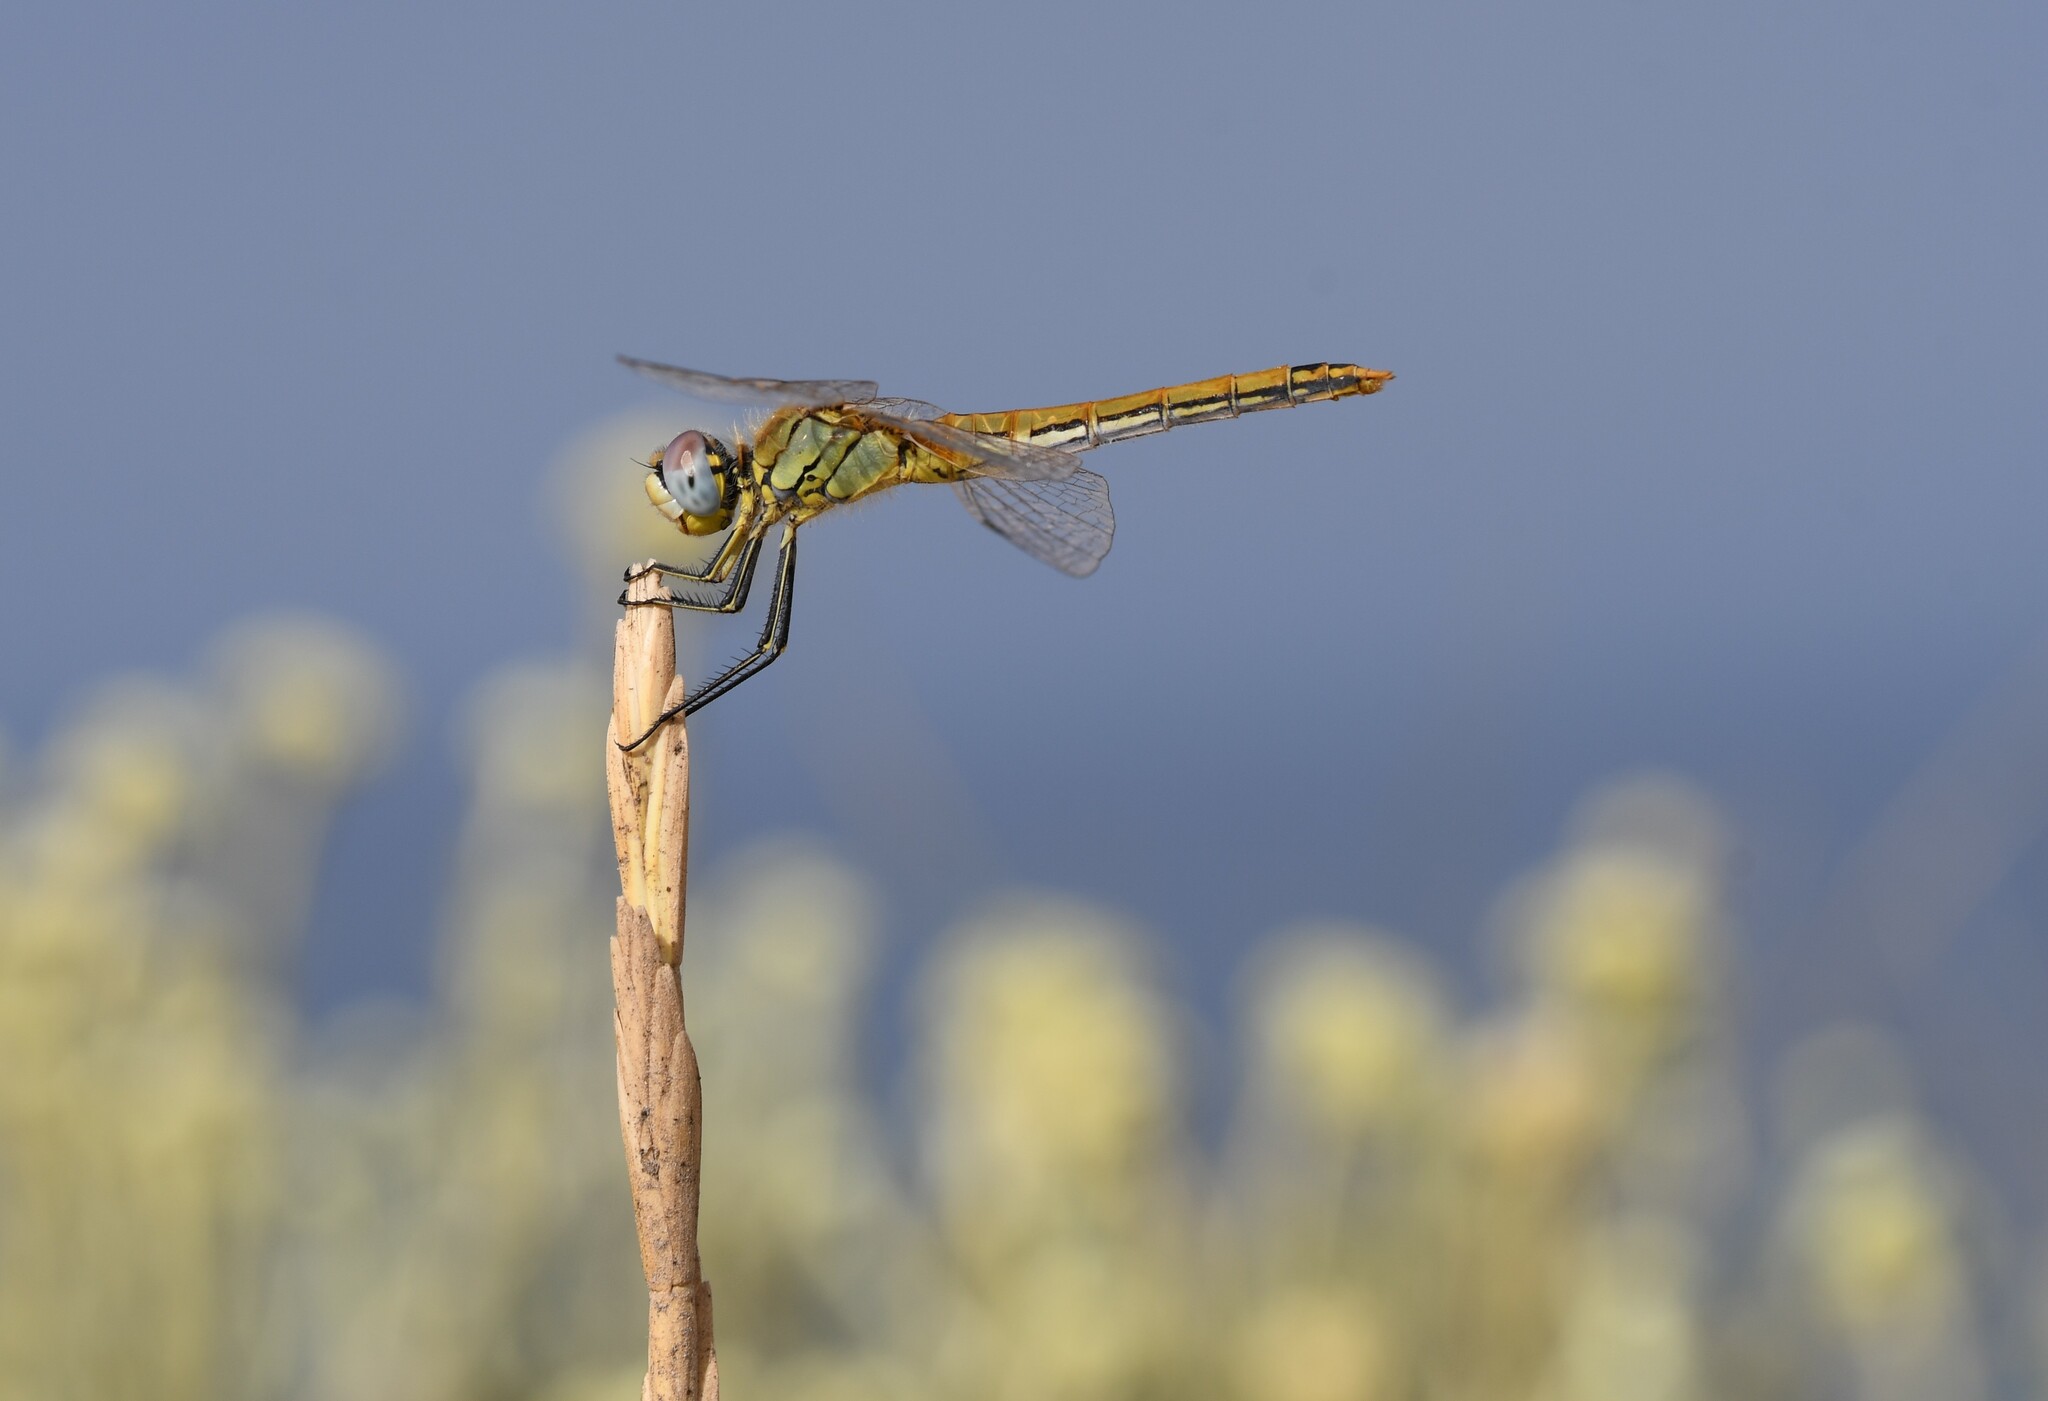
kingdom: Animalia
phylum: Arthropoda
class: Insecta
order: Odonata
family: Libellulidae
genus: Sympetrum
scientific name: Sympetrum fonscolombii
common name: Red-veined darter
